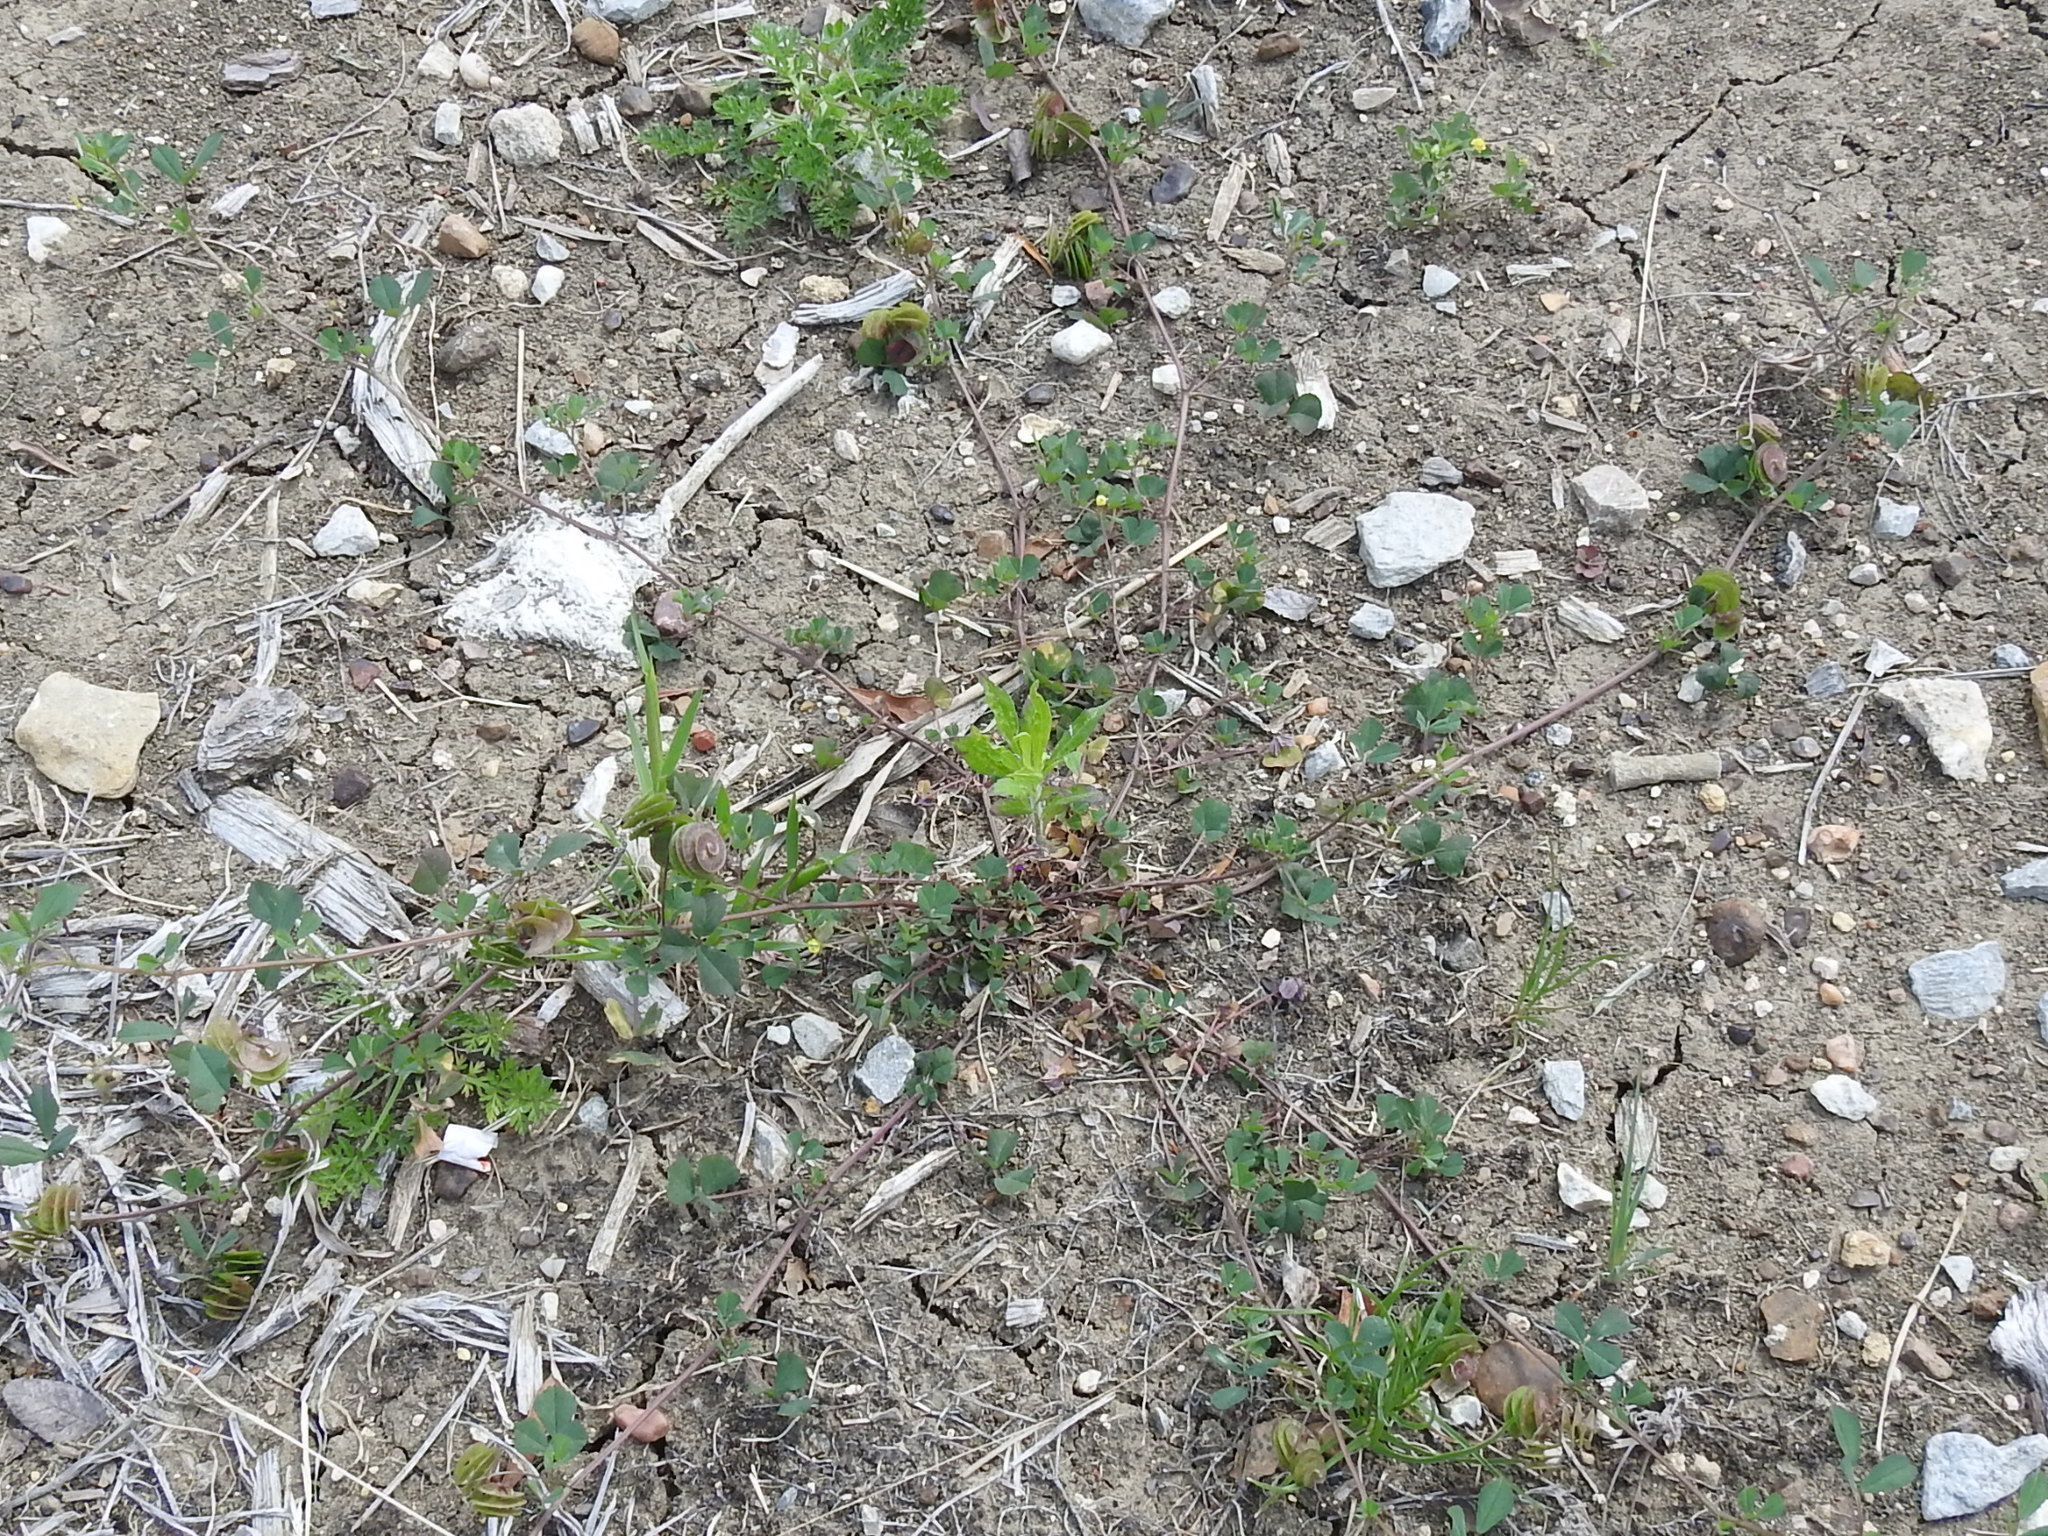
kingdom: Plantae
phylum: Tracheophyta
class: Magnoliopsida
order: Fabales
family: Fabaceae
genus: Medicago
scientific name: Medicago orbicularis
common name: Button medick
